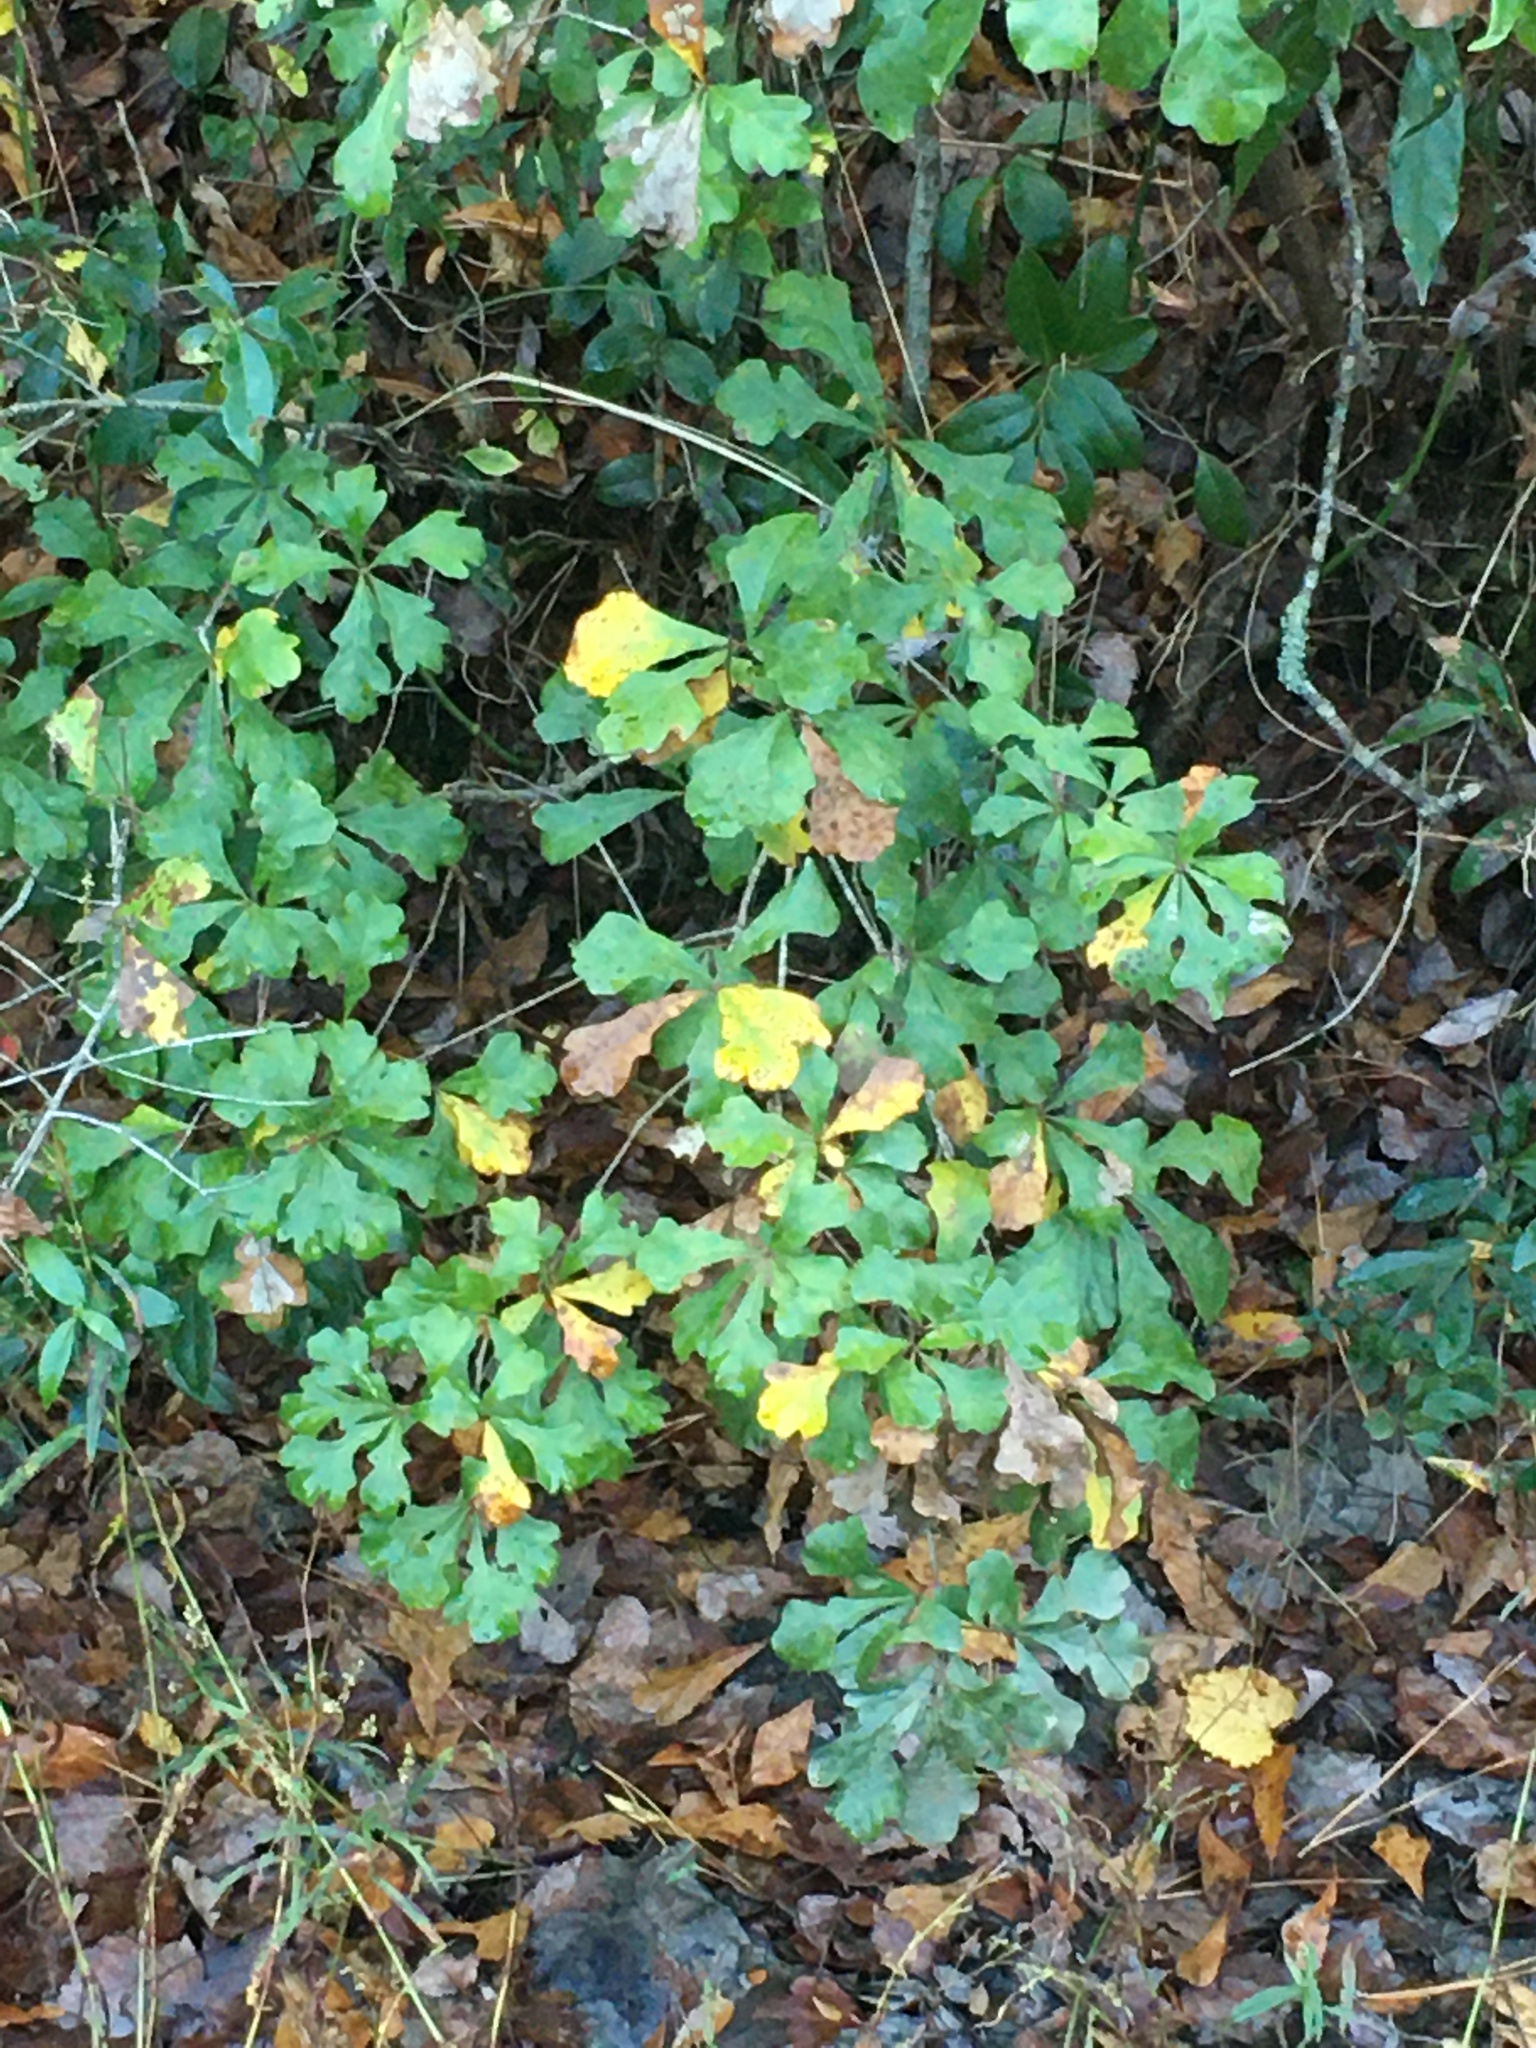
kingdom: Plantae
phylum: Tracheophyta
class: Magnoliopsida
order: Fagales
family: Fagaceae
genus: Quercus
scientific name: Quercus nigra
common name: Water oak
